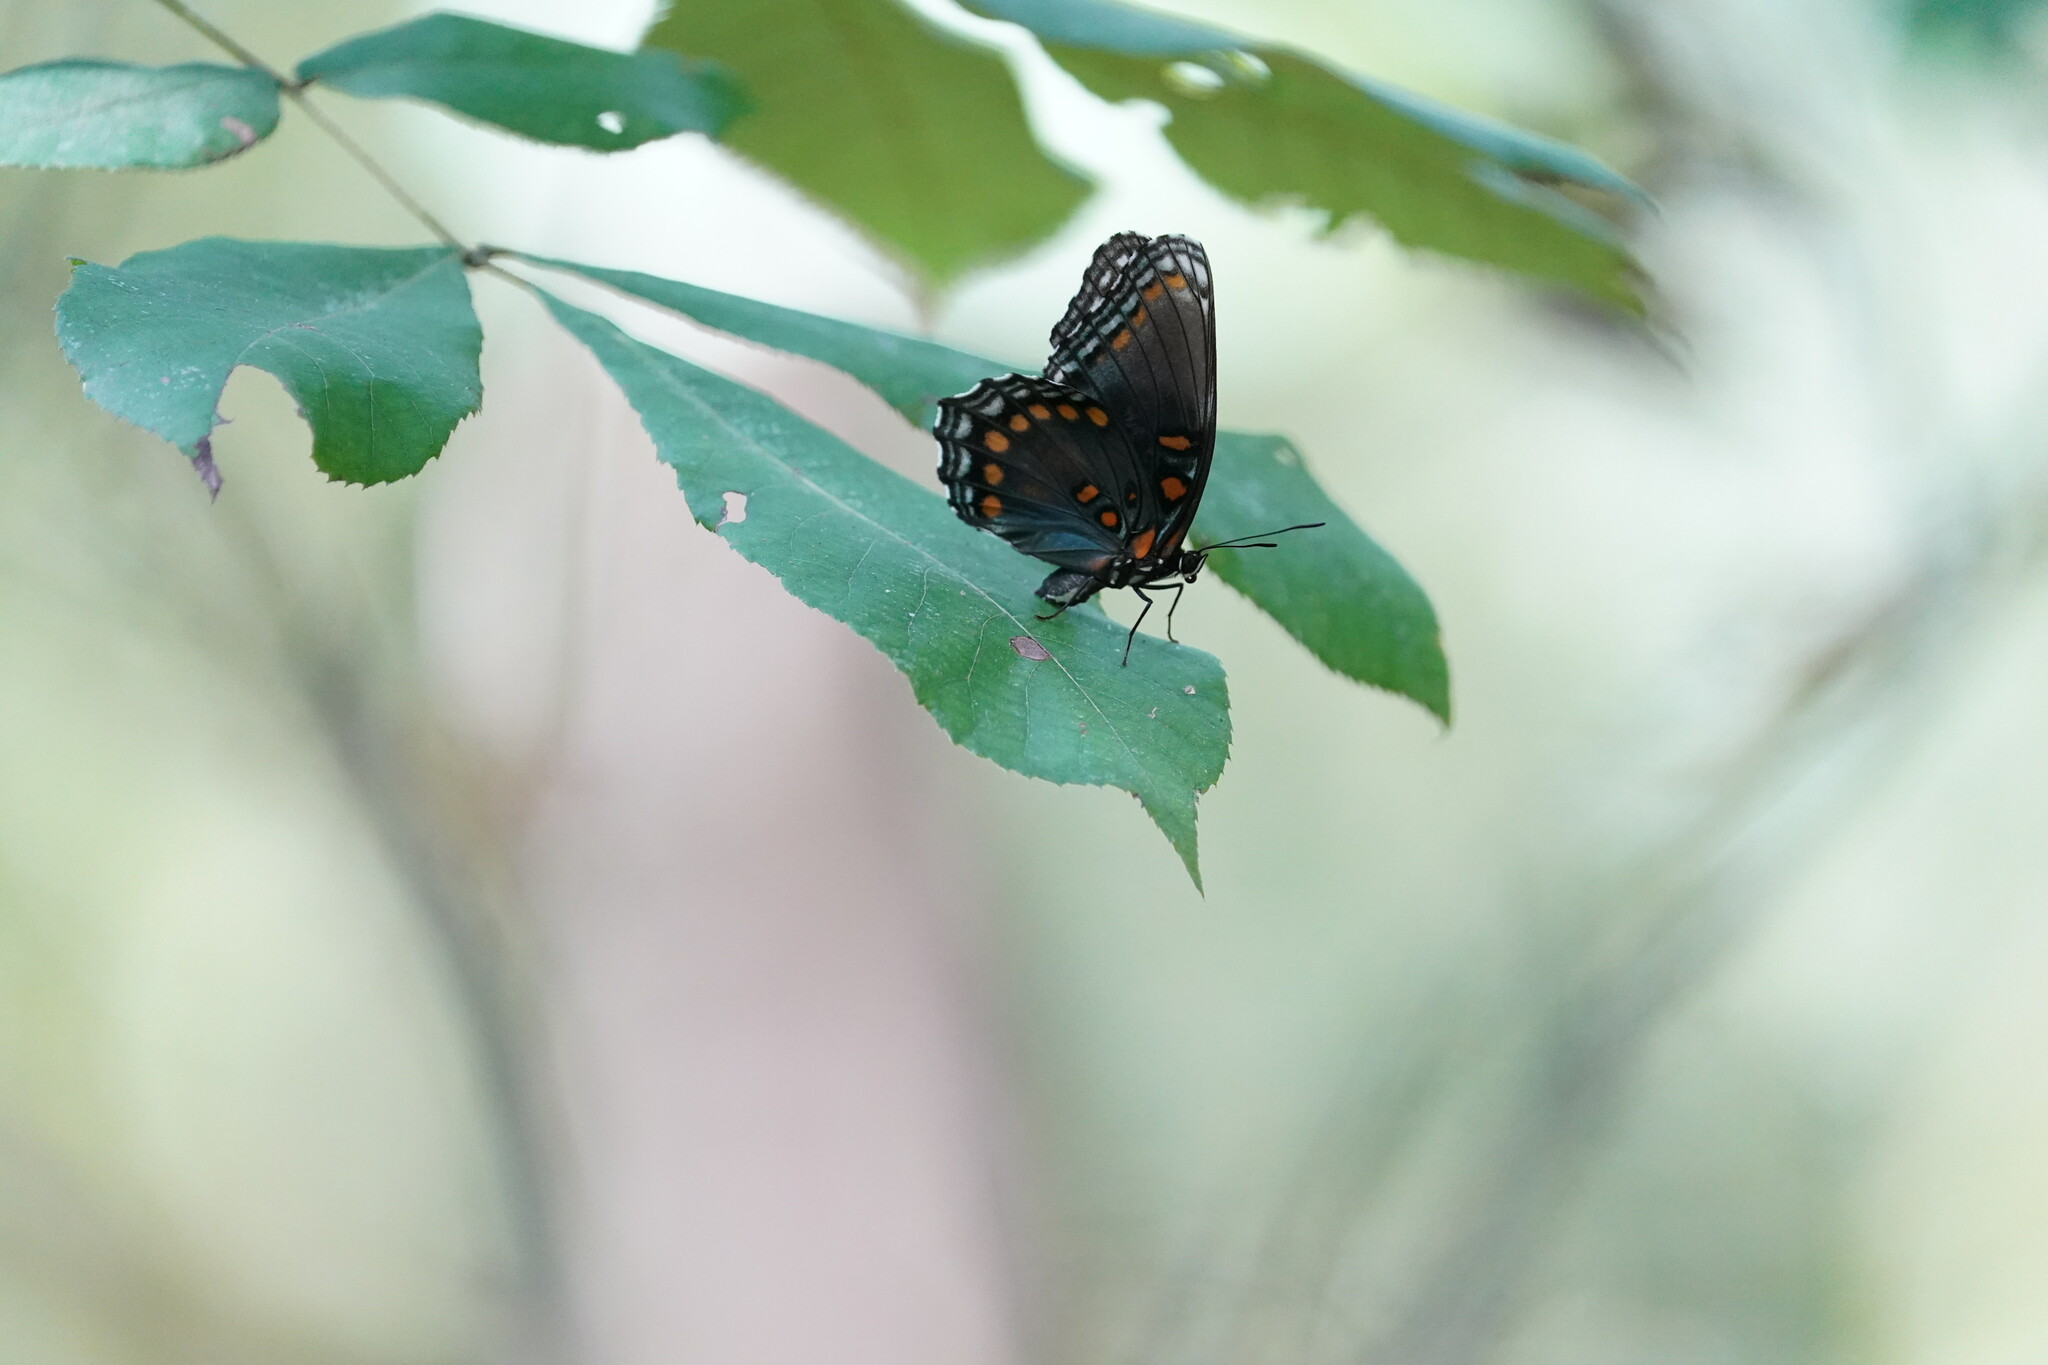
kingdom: Animalia
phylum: Arthropoda
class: Insecta
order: Lepidoptera
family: Nymphalidae
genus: Limenitis
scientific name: Limenitis arthemis
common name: Red-spotted admiral
